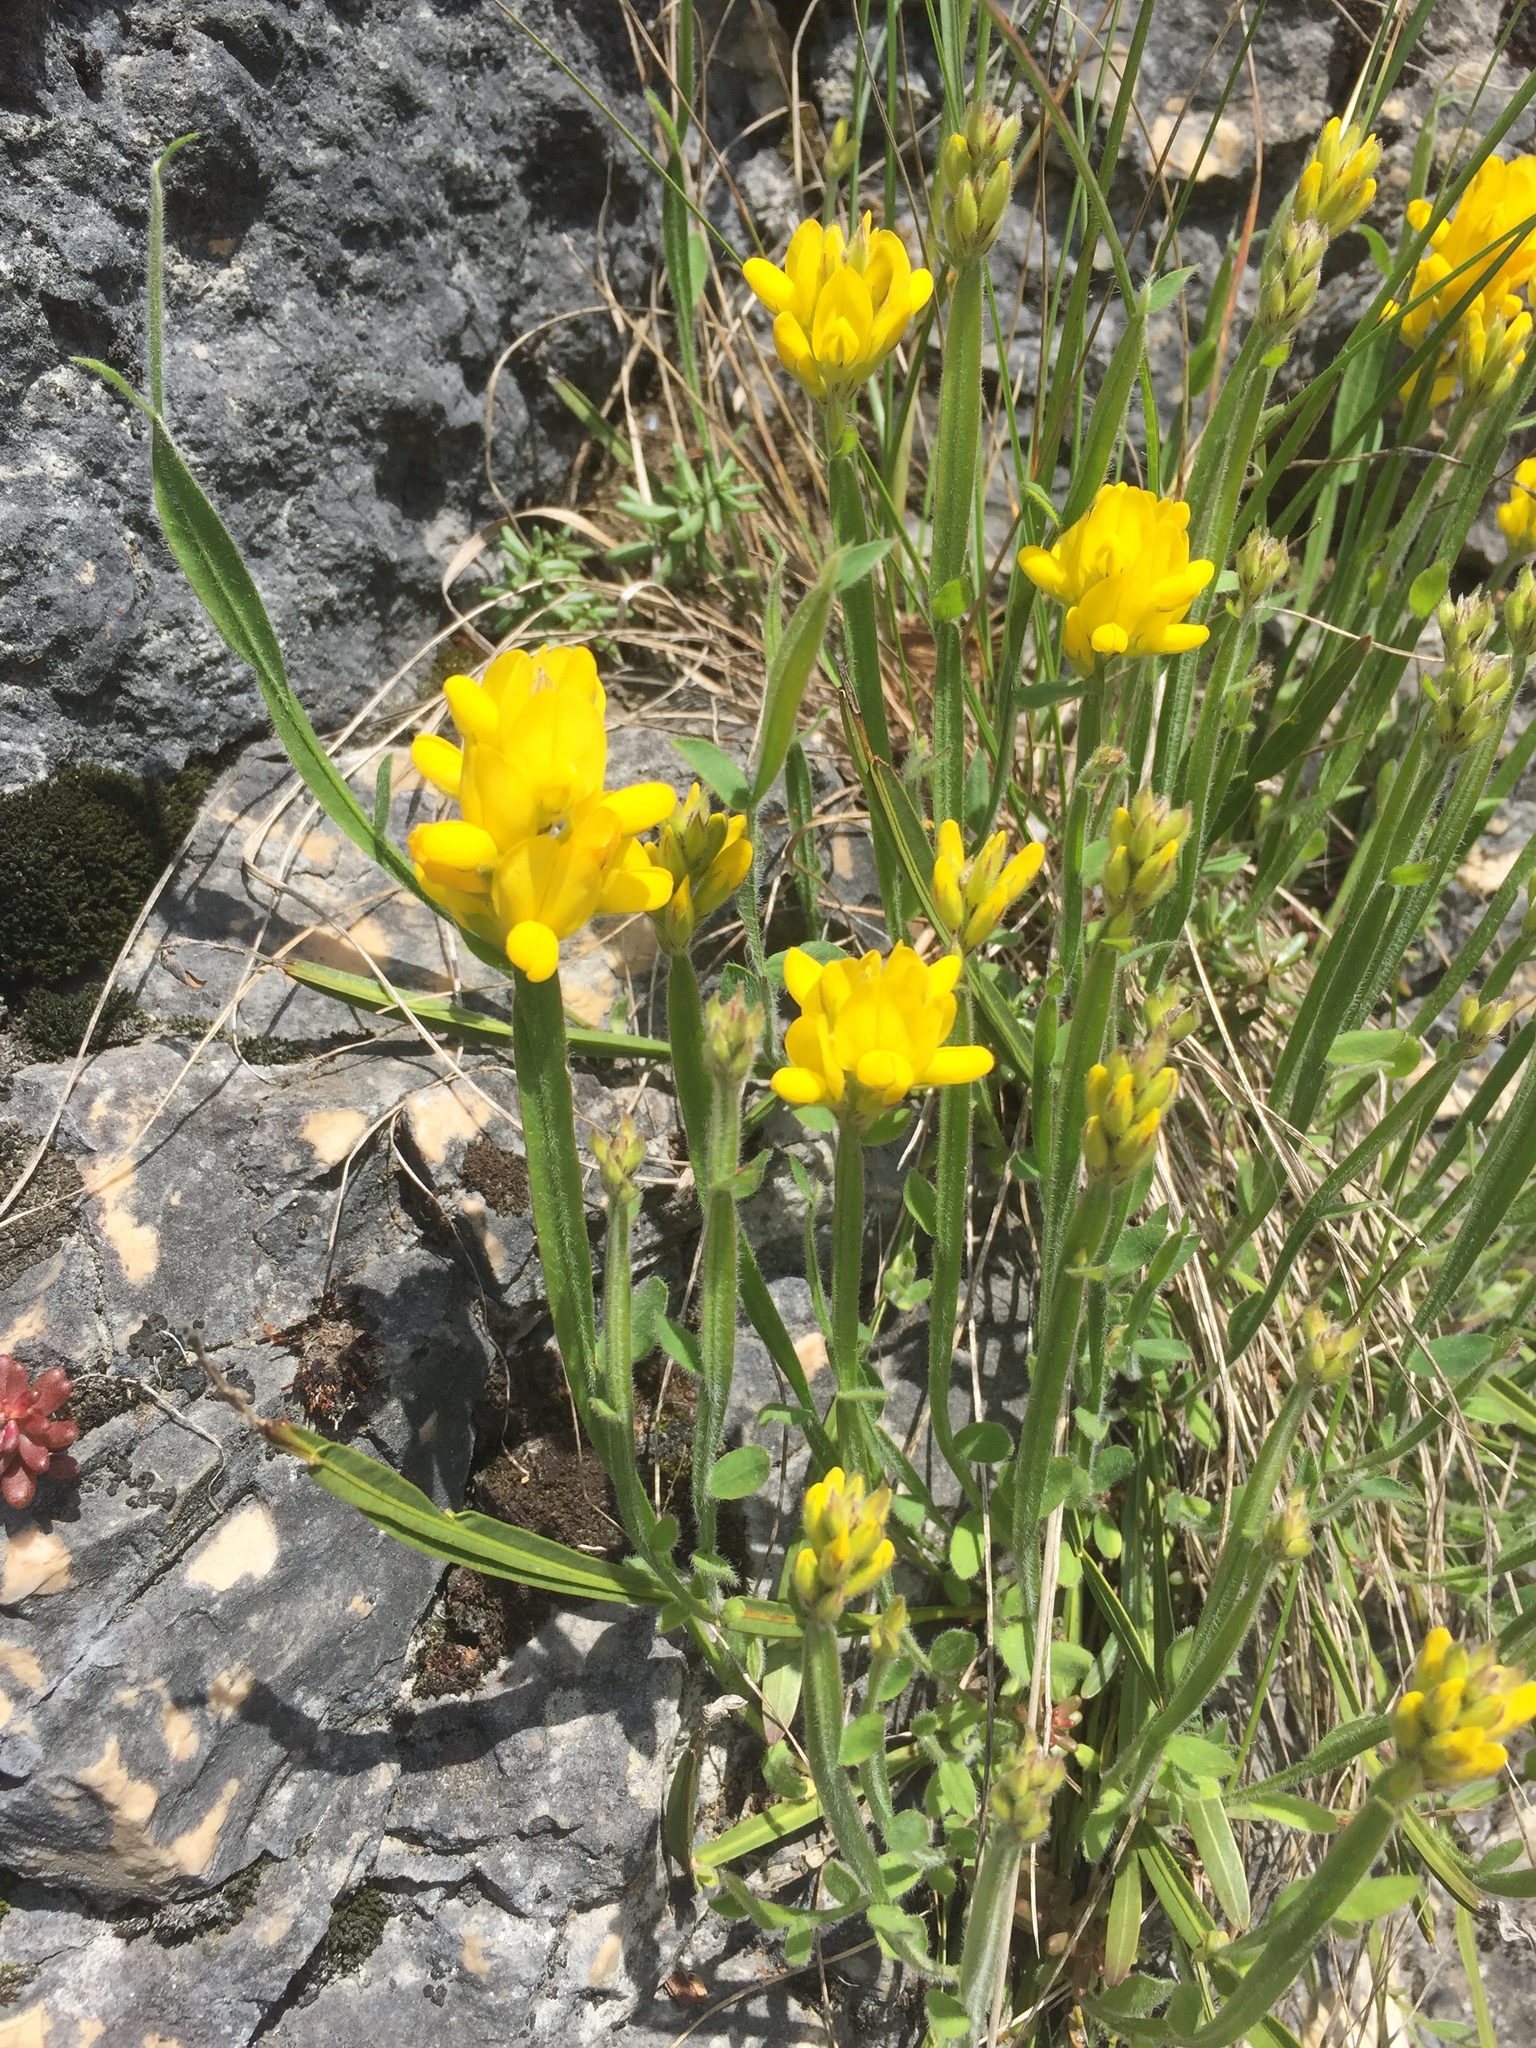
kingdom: Plantae
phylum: Tracheophyta
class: Magnoliopsida
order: Fabales
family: Fabaceae
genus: Genista
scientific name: Genista sagittalis
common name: Winged greenweed
